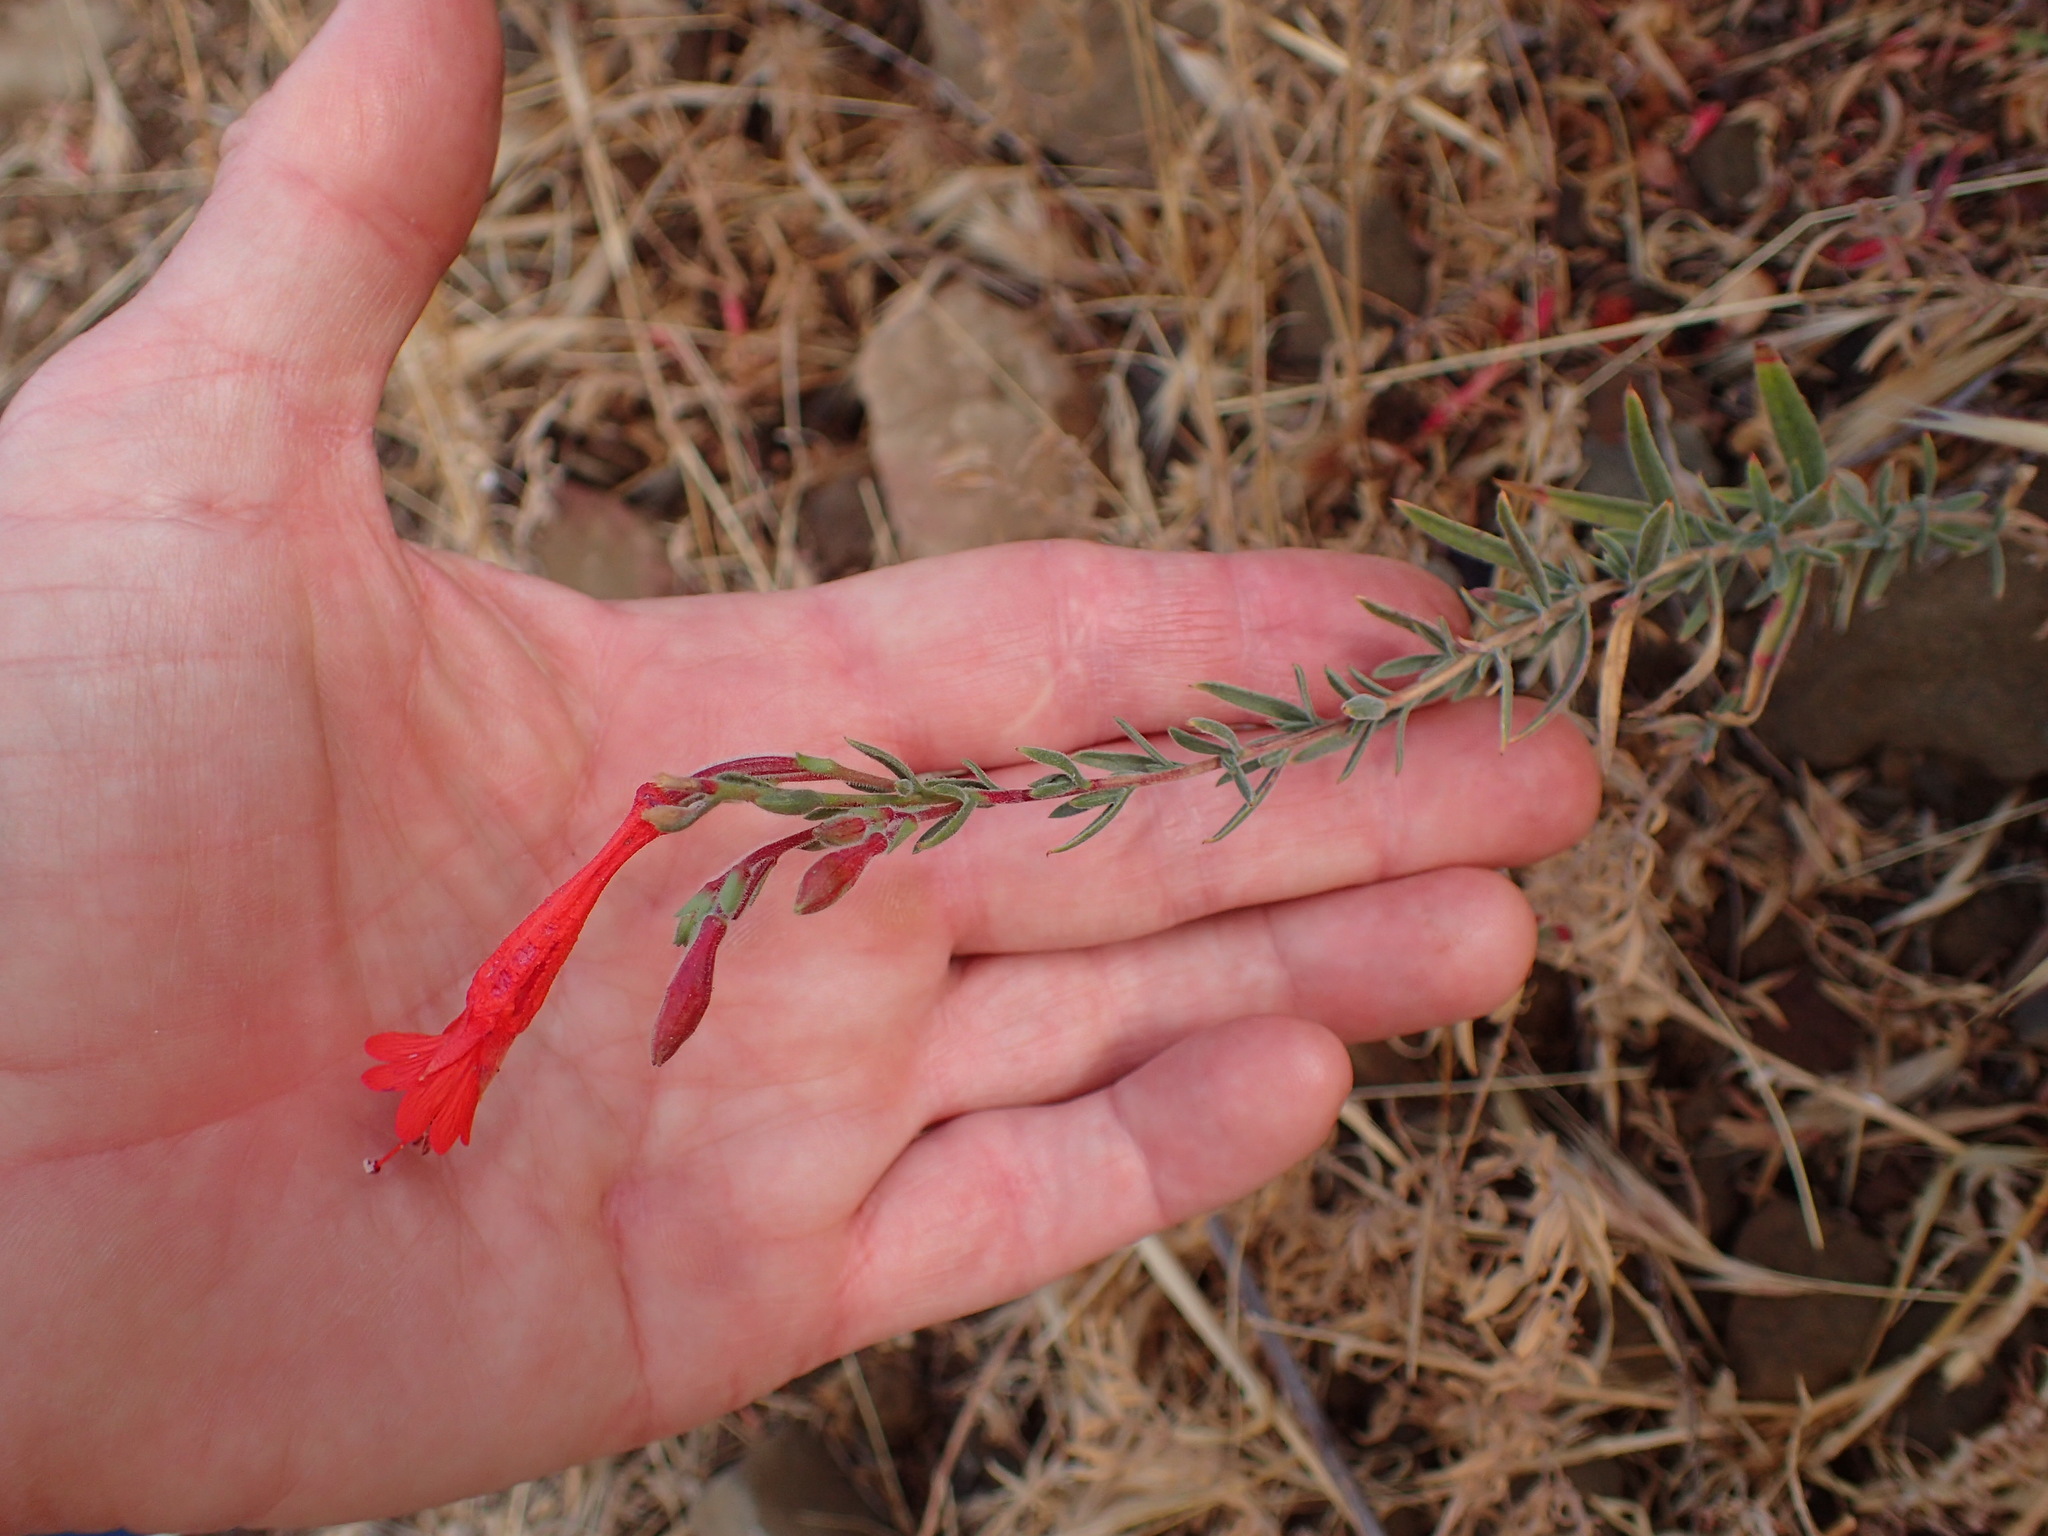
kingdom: Plantae
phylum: Tracheophyta
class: Magnoliopsida
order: Myrtales
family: Onagraceae
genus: Epilobium
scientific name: Epilobium canum
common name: California-fuchsia
